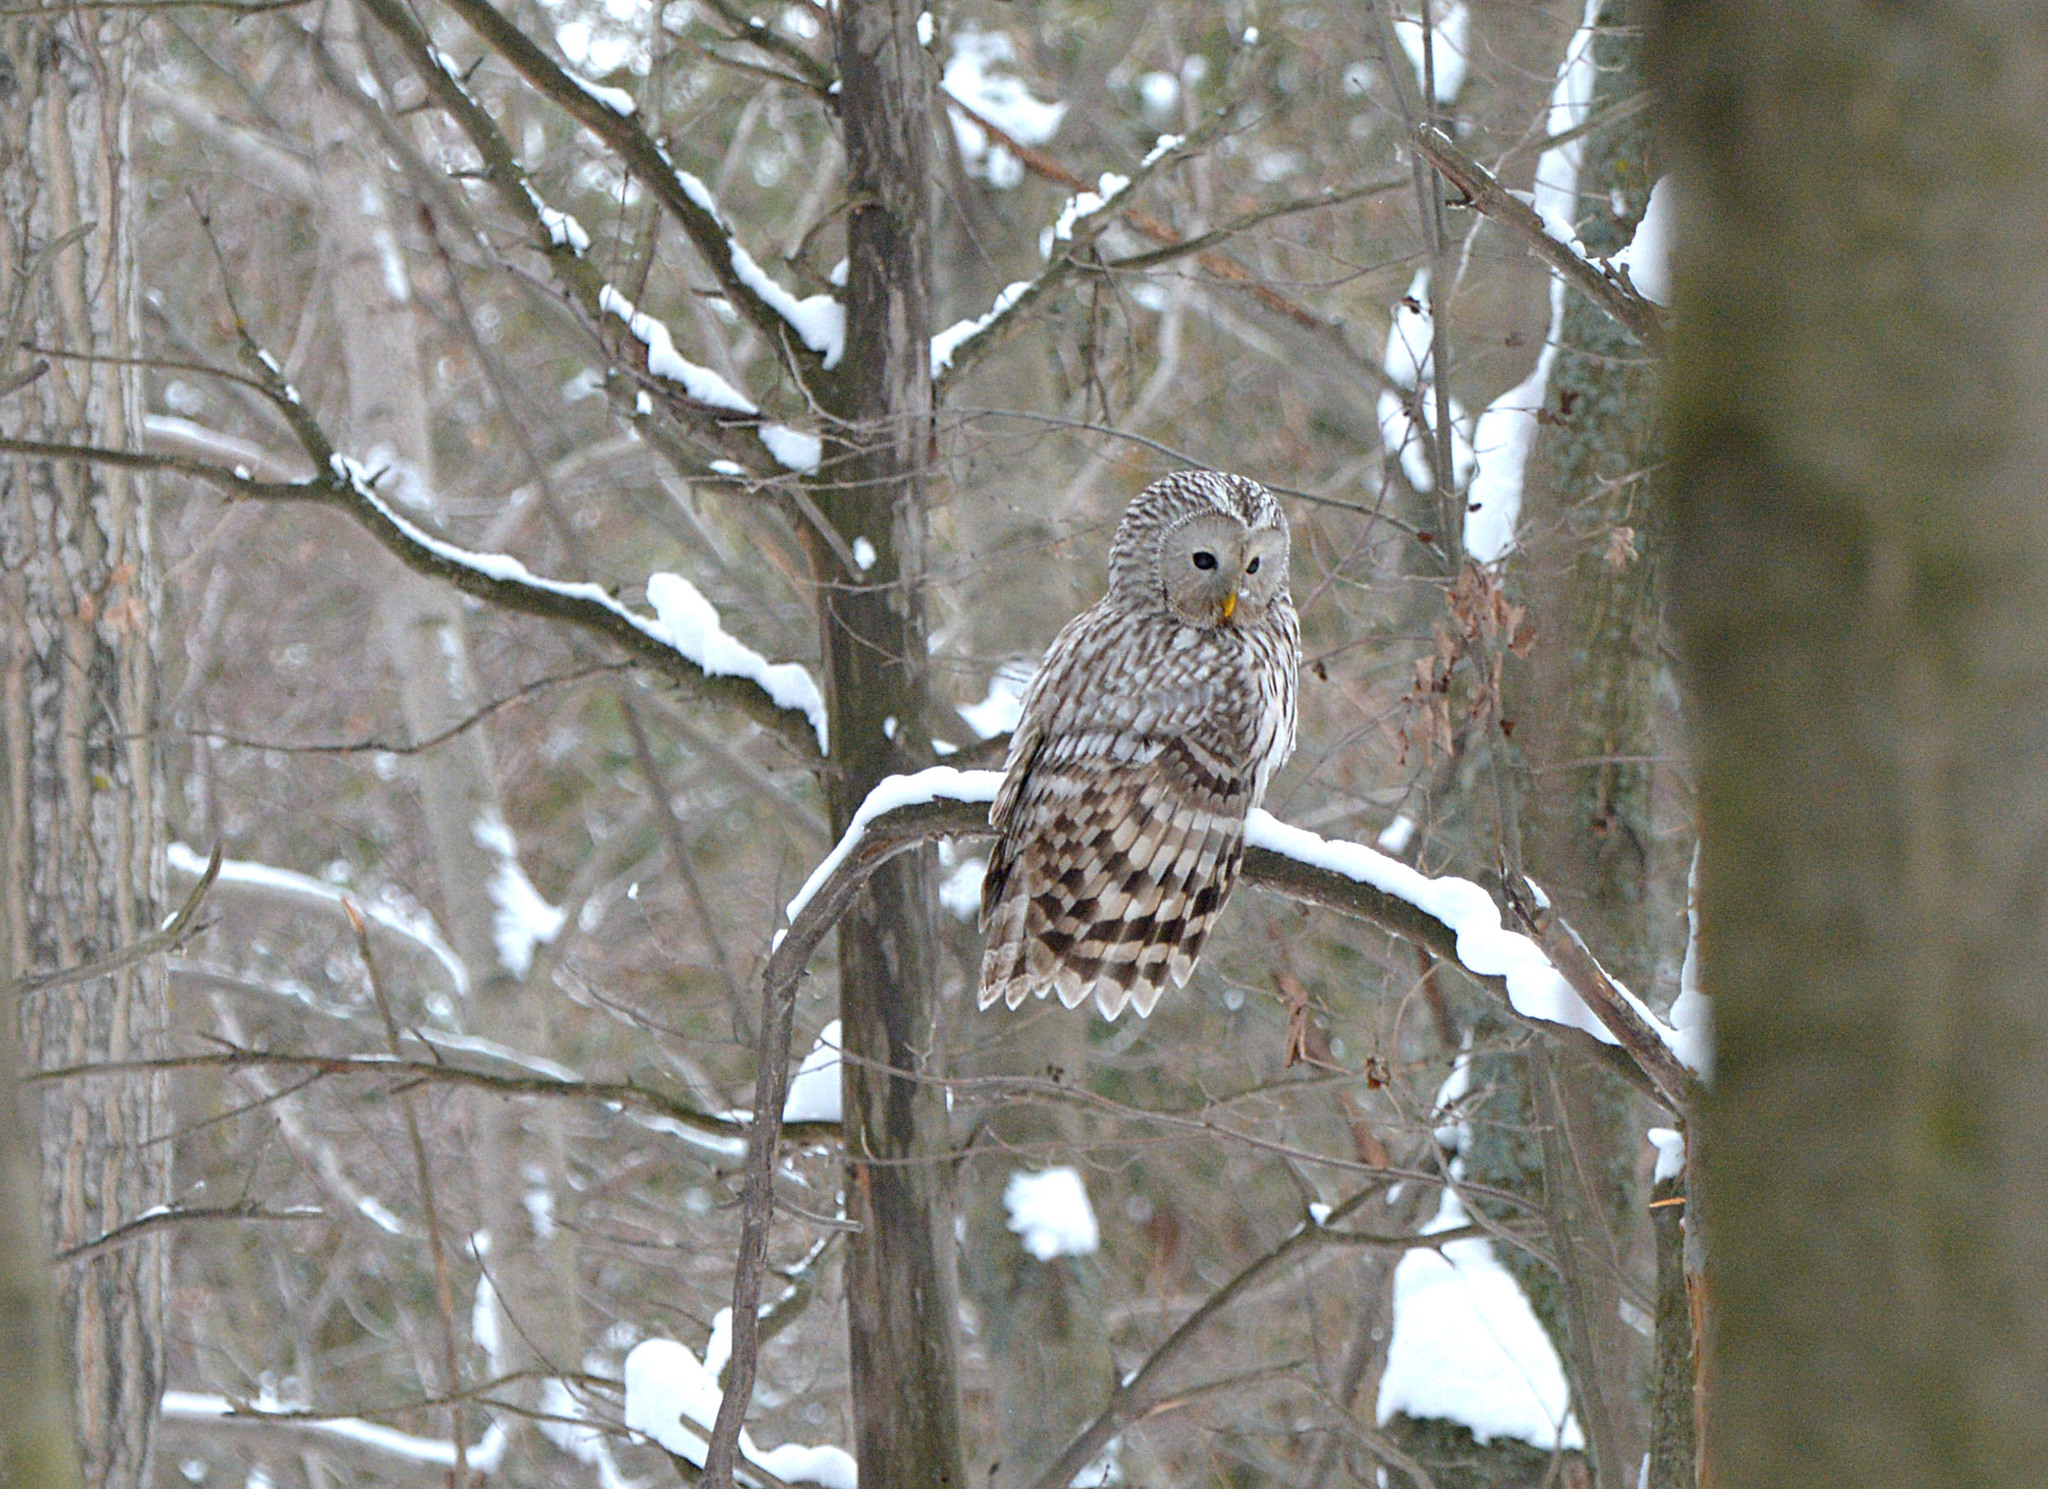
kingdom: Animalia
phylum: Chordata
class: Aves
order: Strigiformes
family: Strigidae
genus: Strix
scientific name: Strix uralensis
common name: Ural owl
